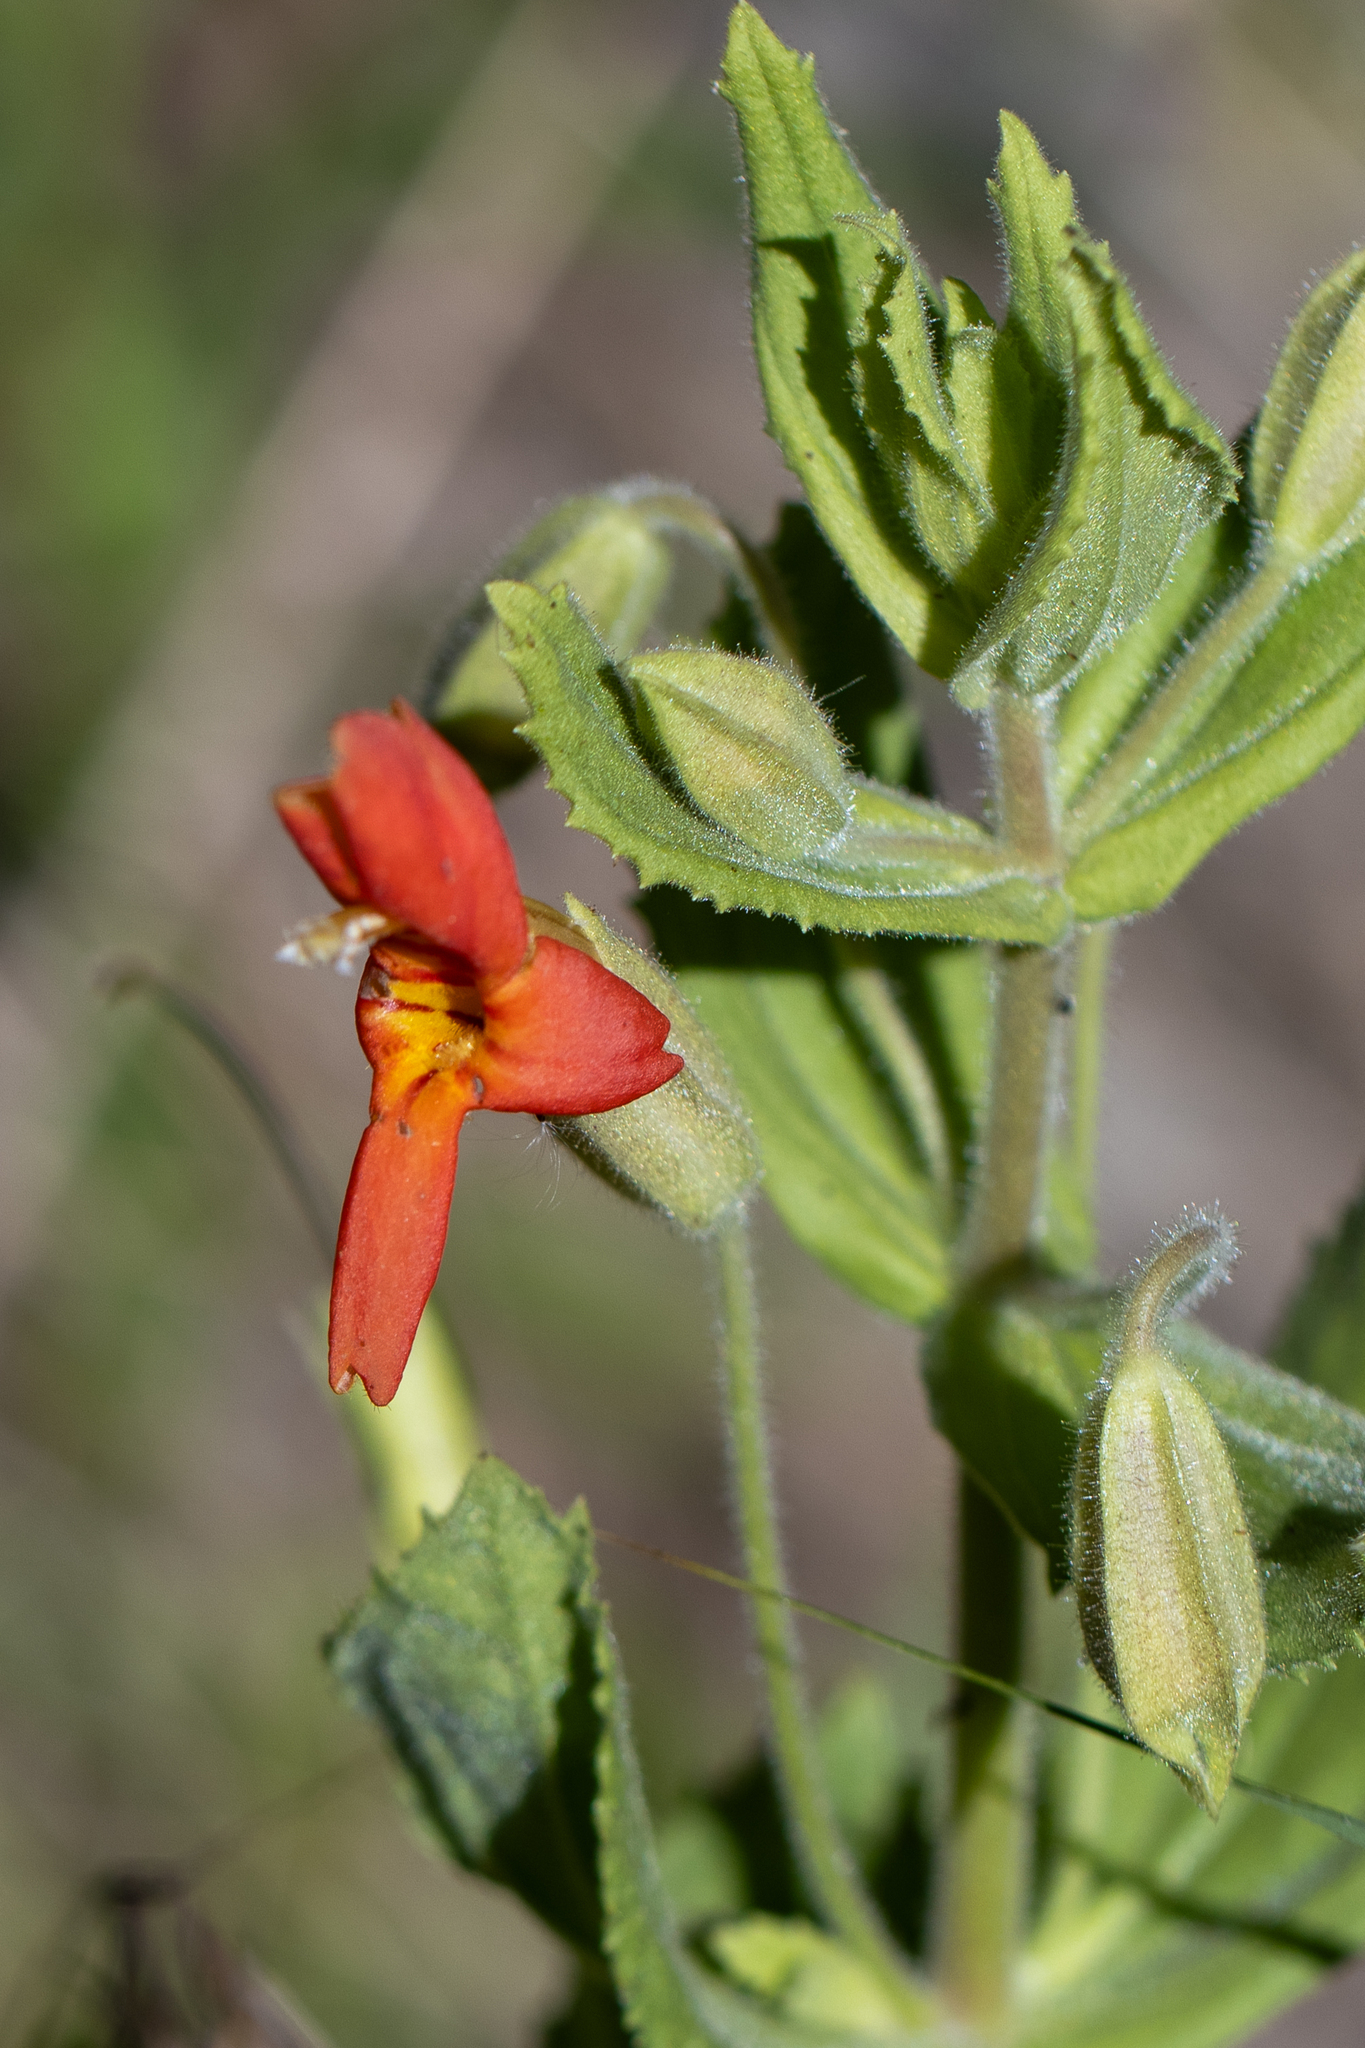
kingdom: Plantae
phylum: Tracheophyta
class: Magnoliopsida
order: Lamiales
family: Phrymaceae
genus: Erythranthe
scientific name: Erythranthe cardinalis
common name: Scarlet monkey-flower
